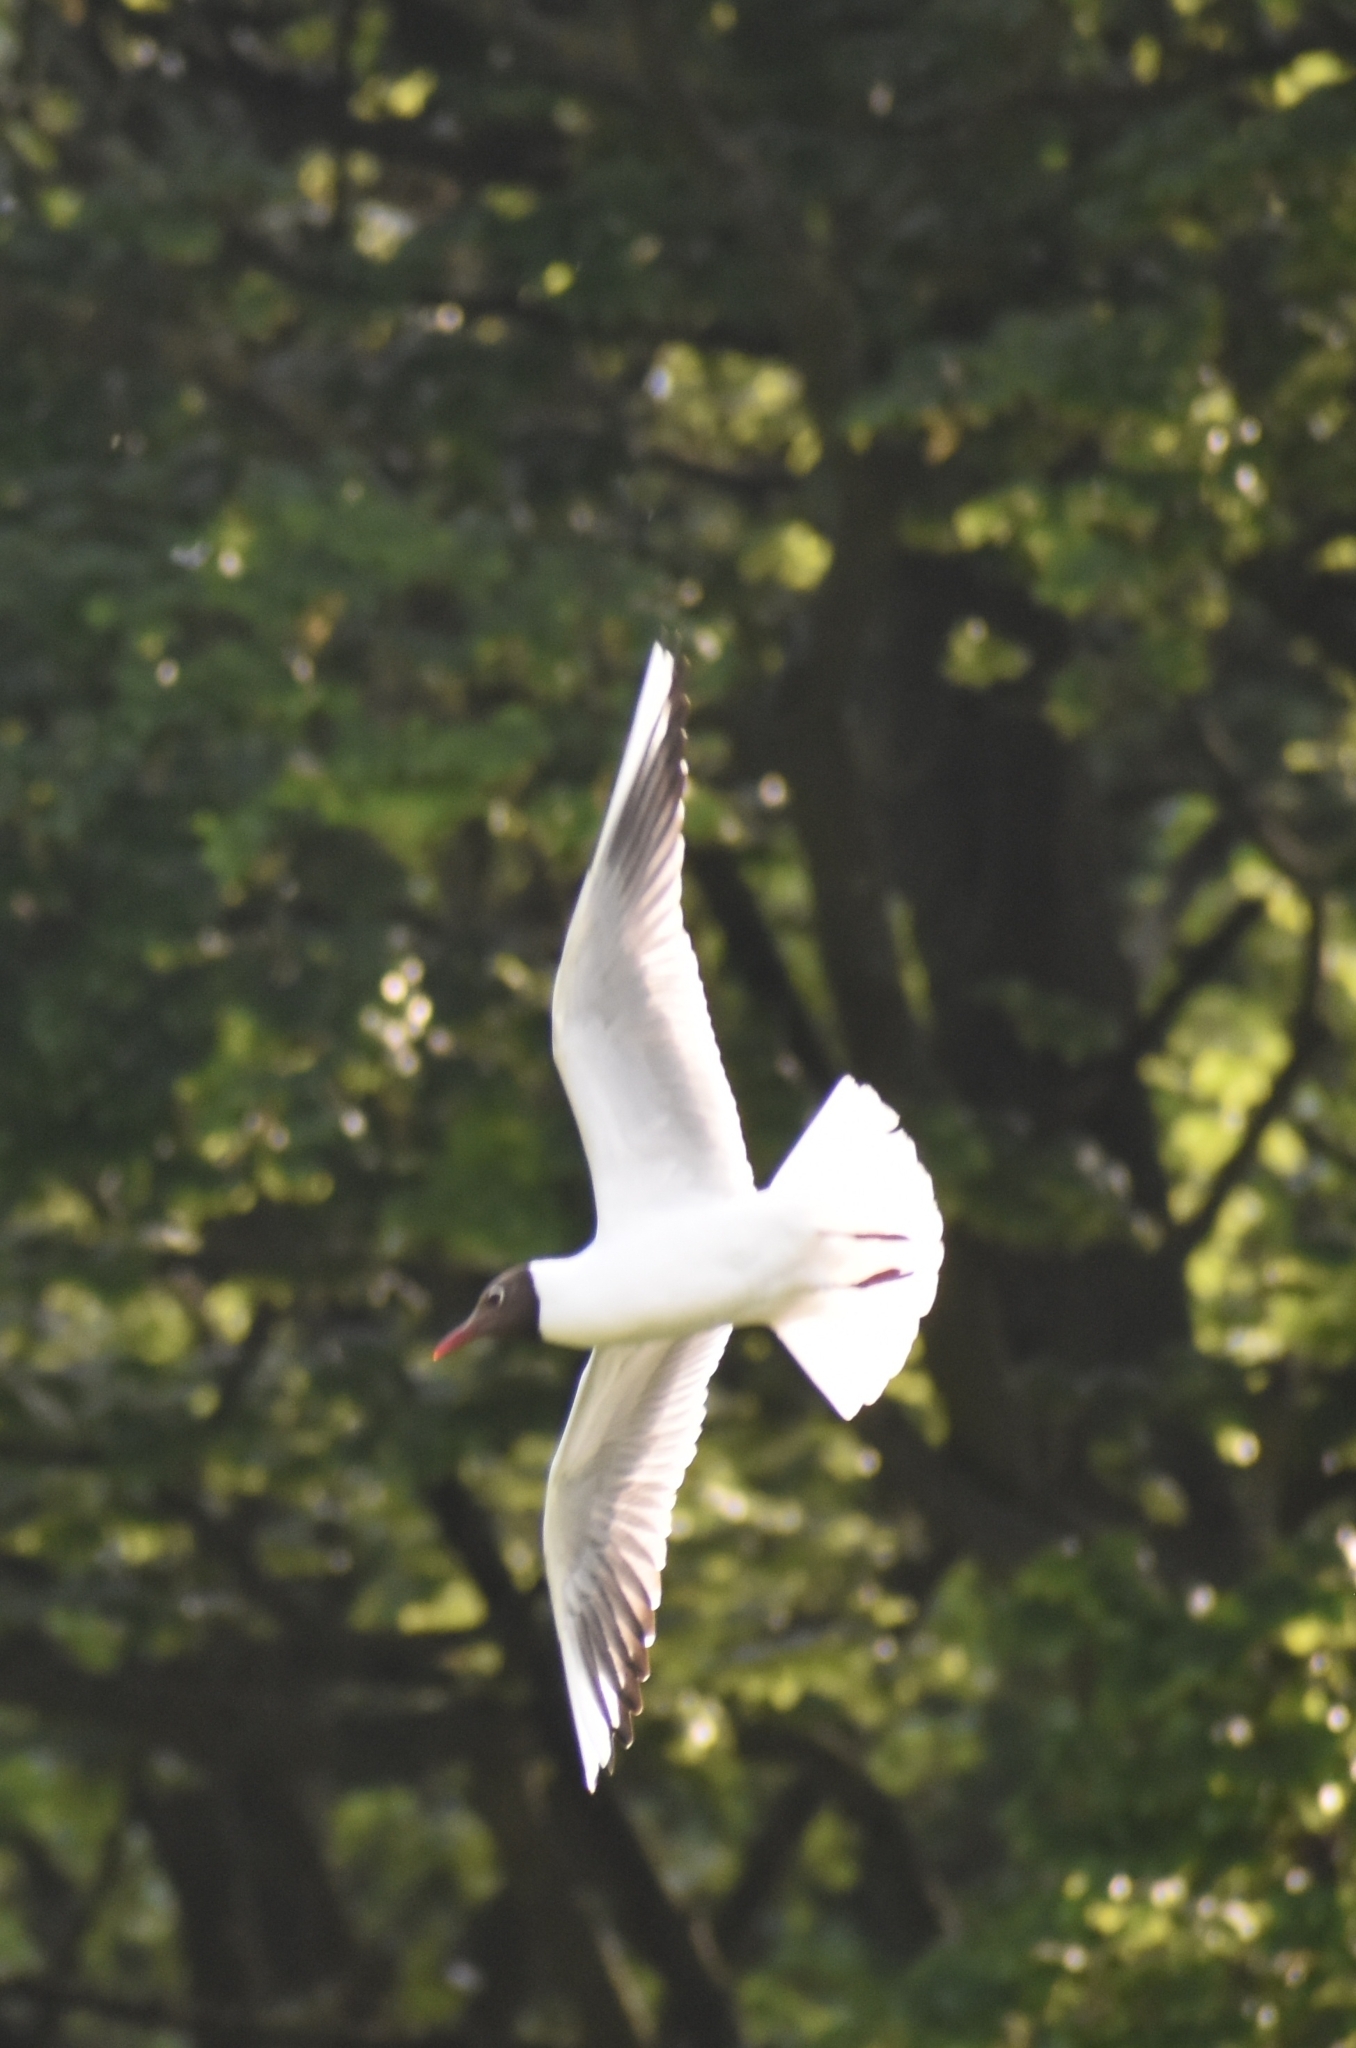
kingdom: Animalia
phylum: Chordata
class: Aves
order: Charadriiformes
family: Laridae
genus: Chroicocephalus
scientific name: Chroicocephalus ridibundus
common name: Black-headed gull
